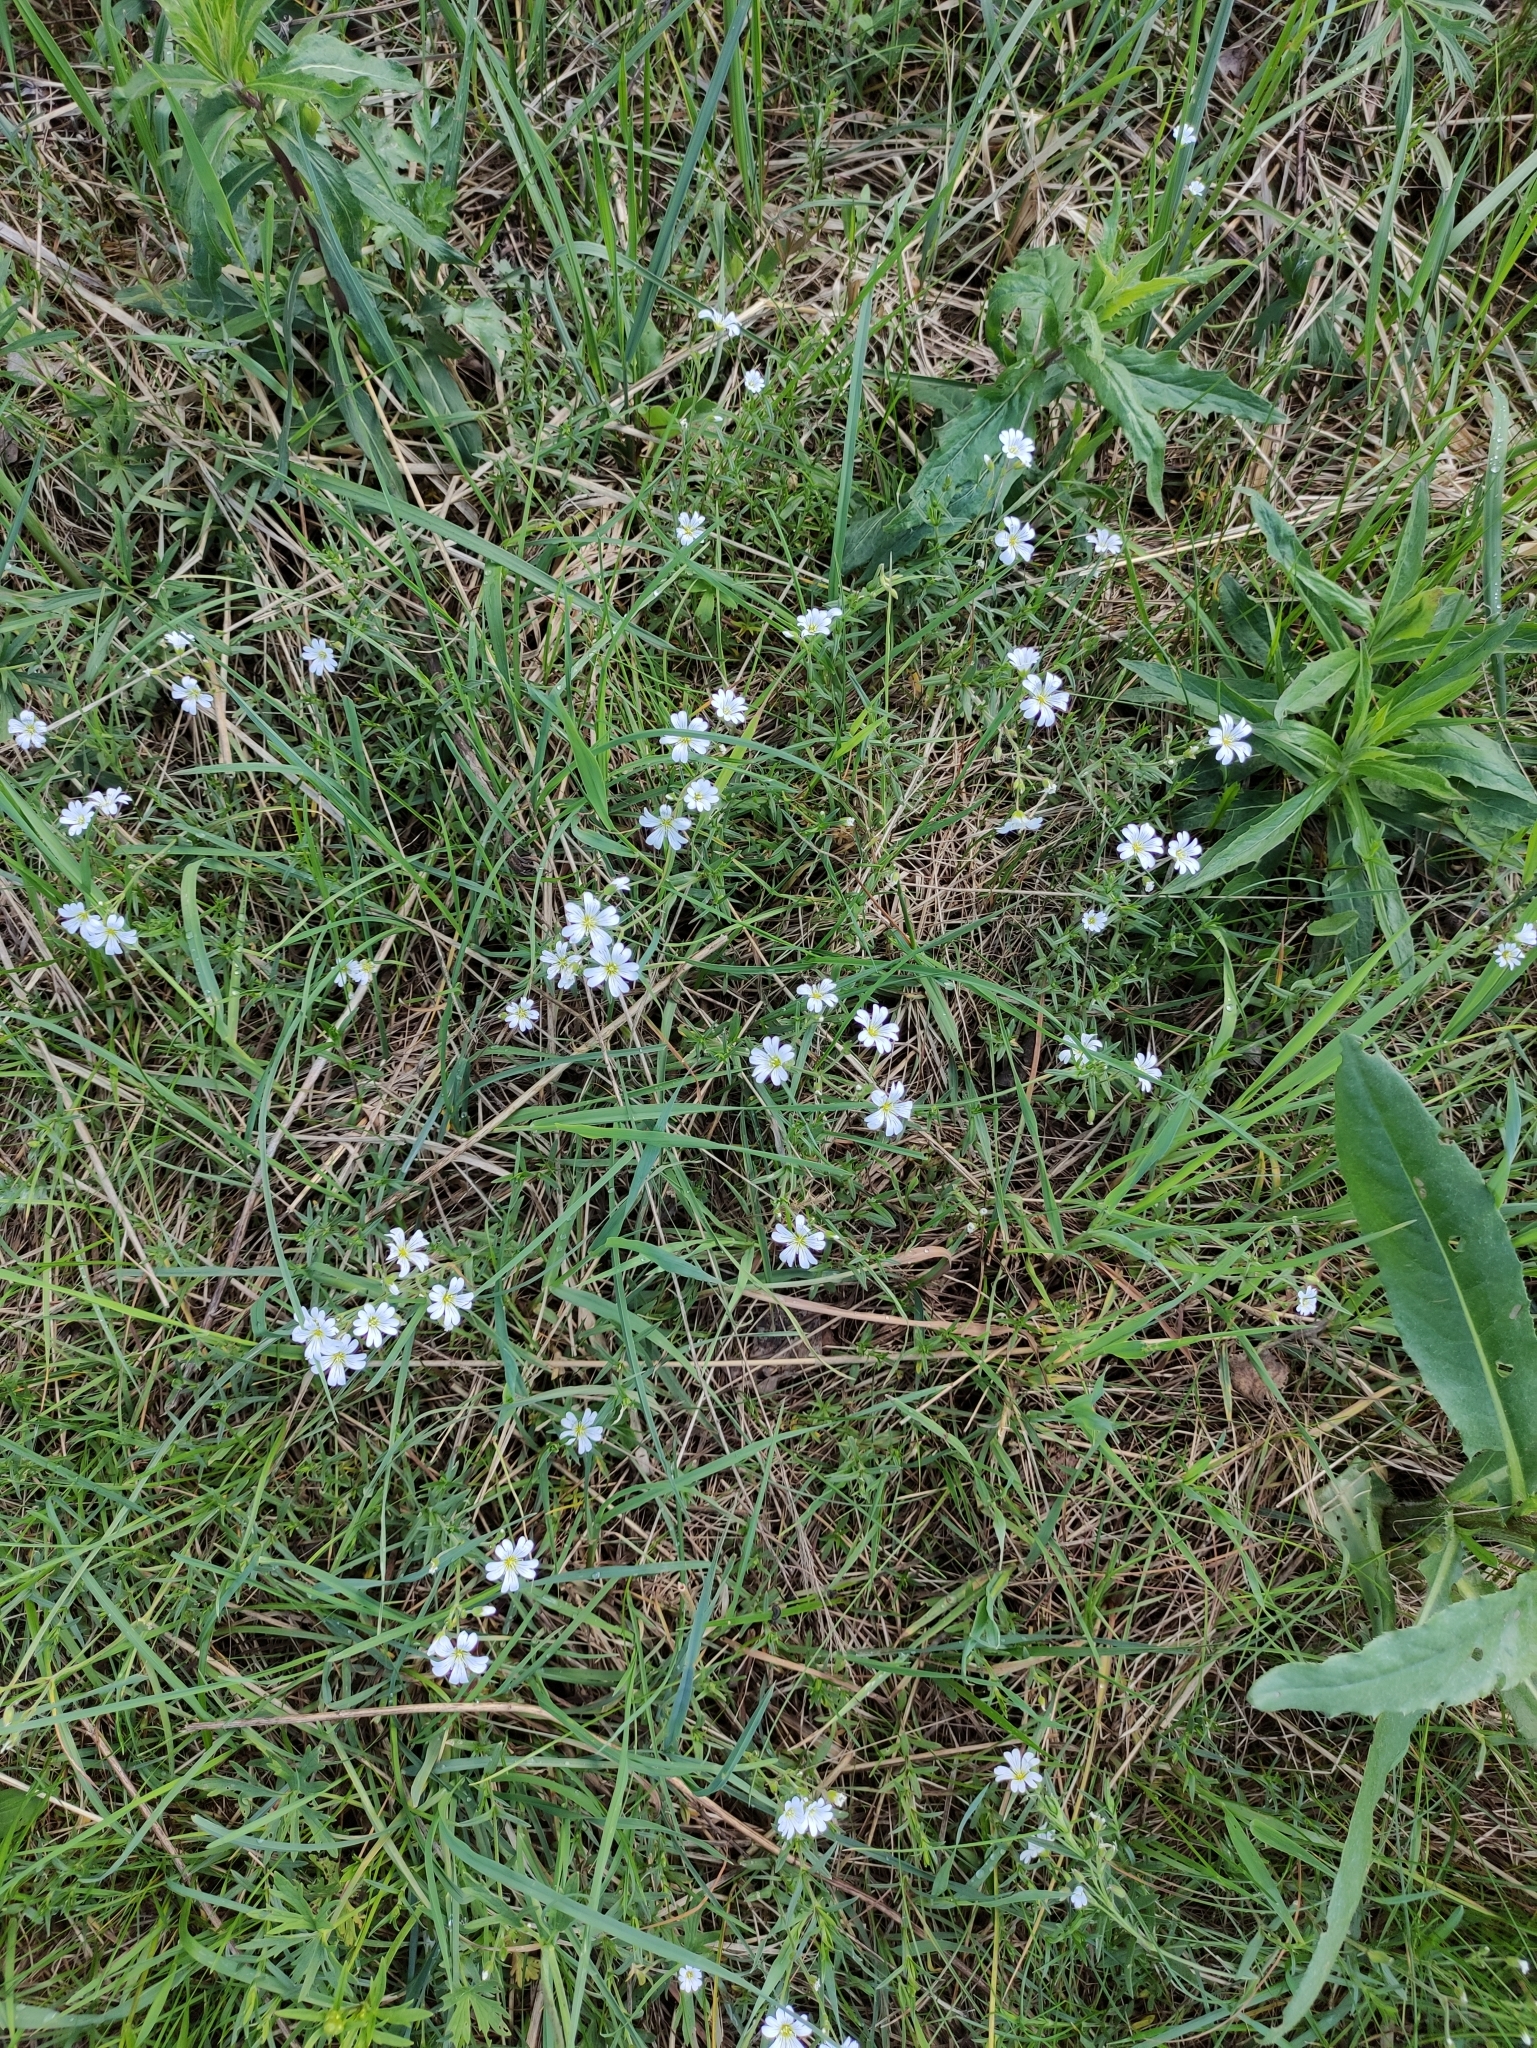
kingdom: Plantae
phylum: Tracheophyta
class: Magnoliopsida
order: Caryophyllales
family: Caryophyllaceae
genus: Cerastium
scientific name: Cerastium arvense
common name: Field mouse-ear
